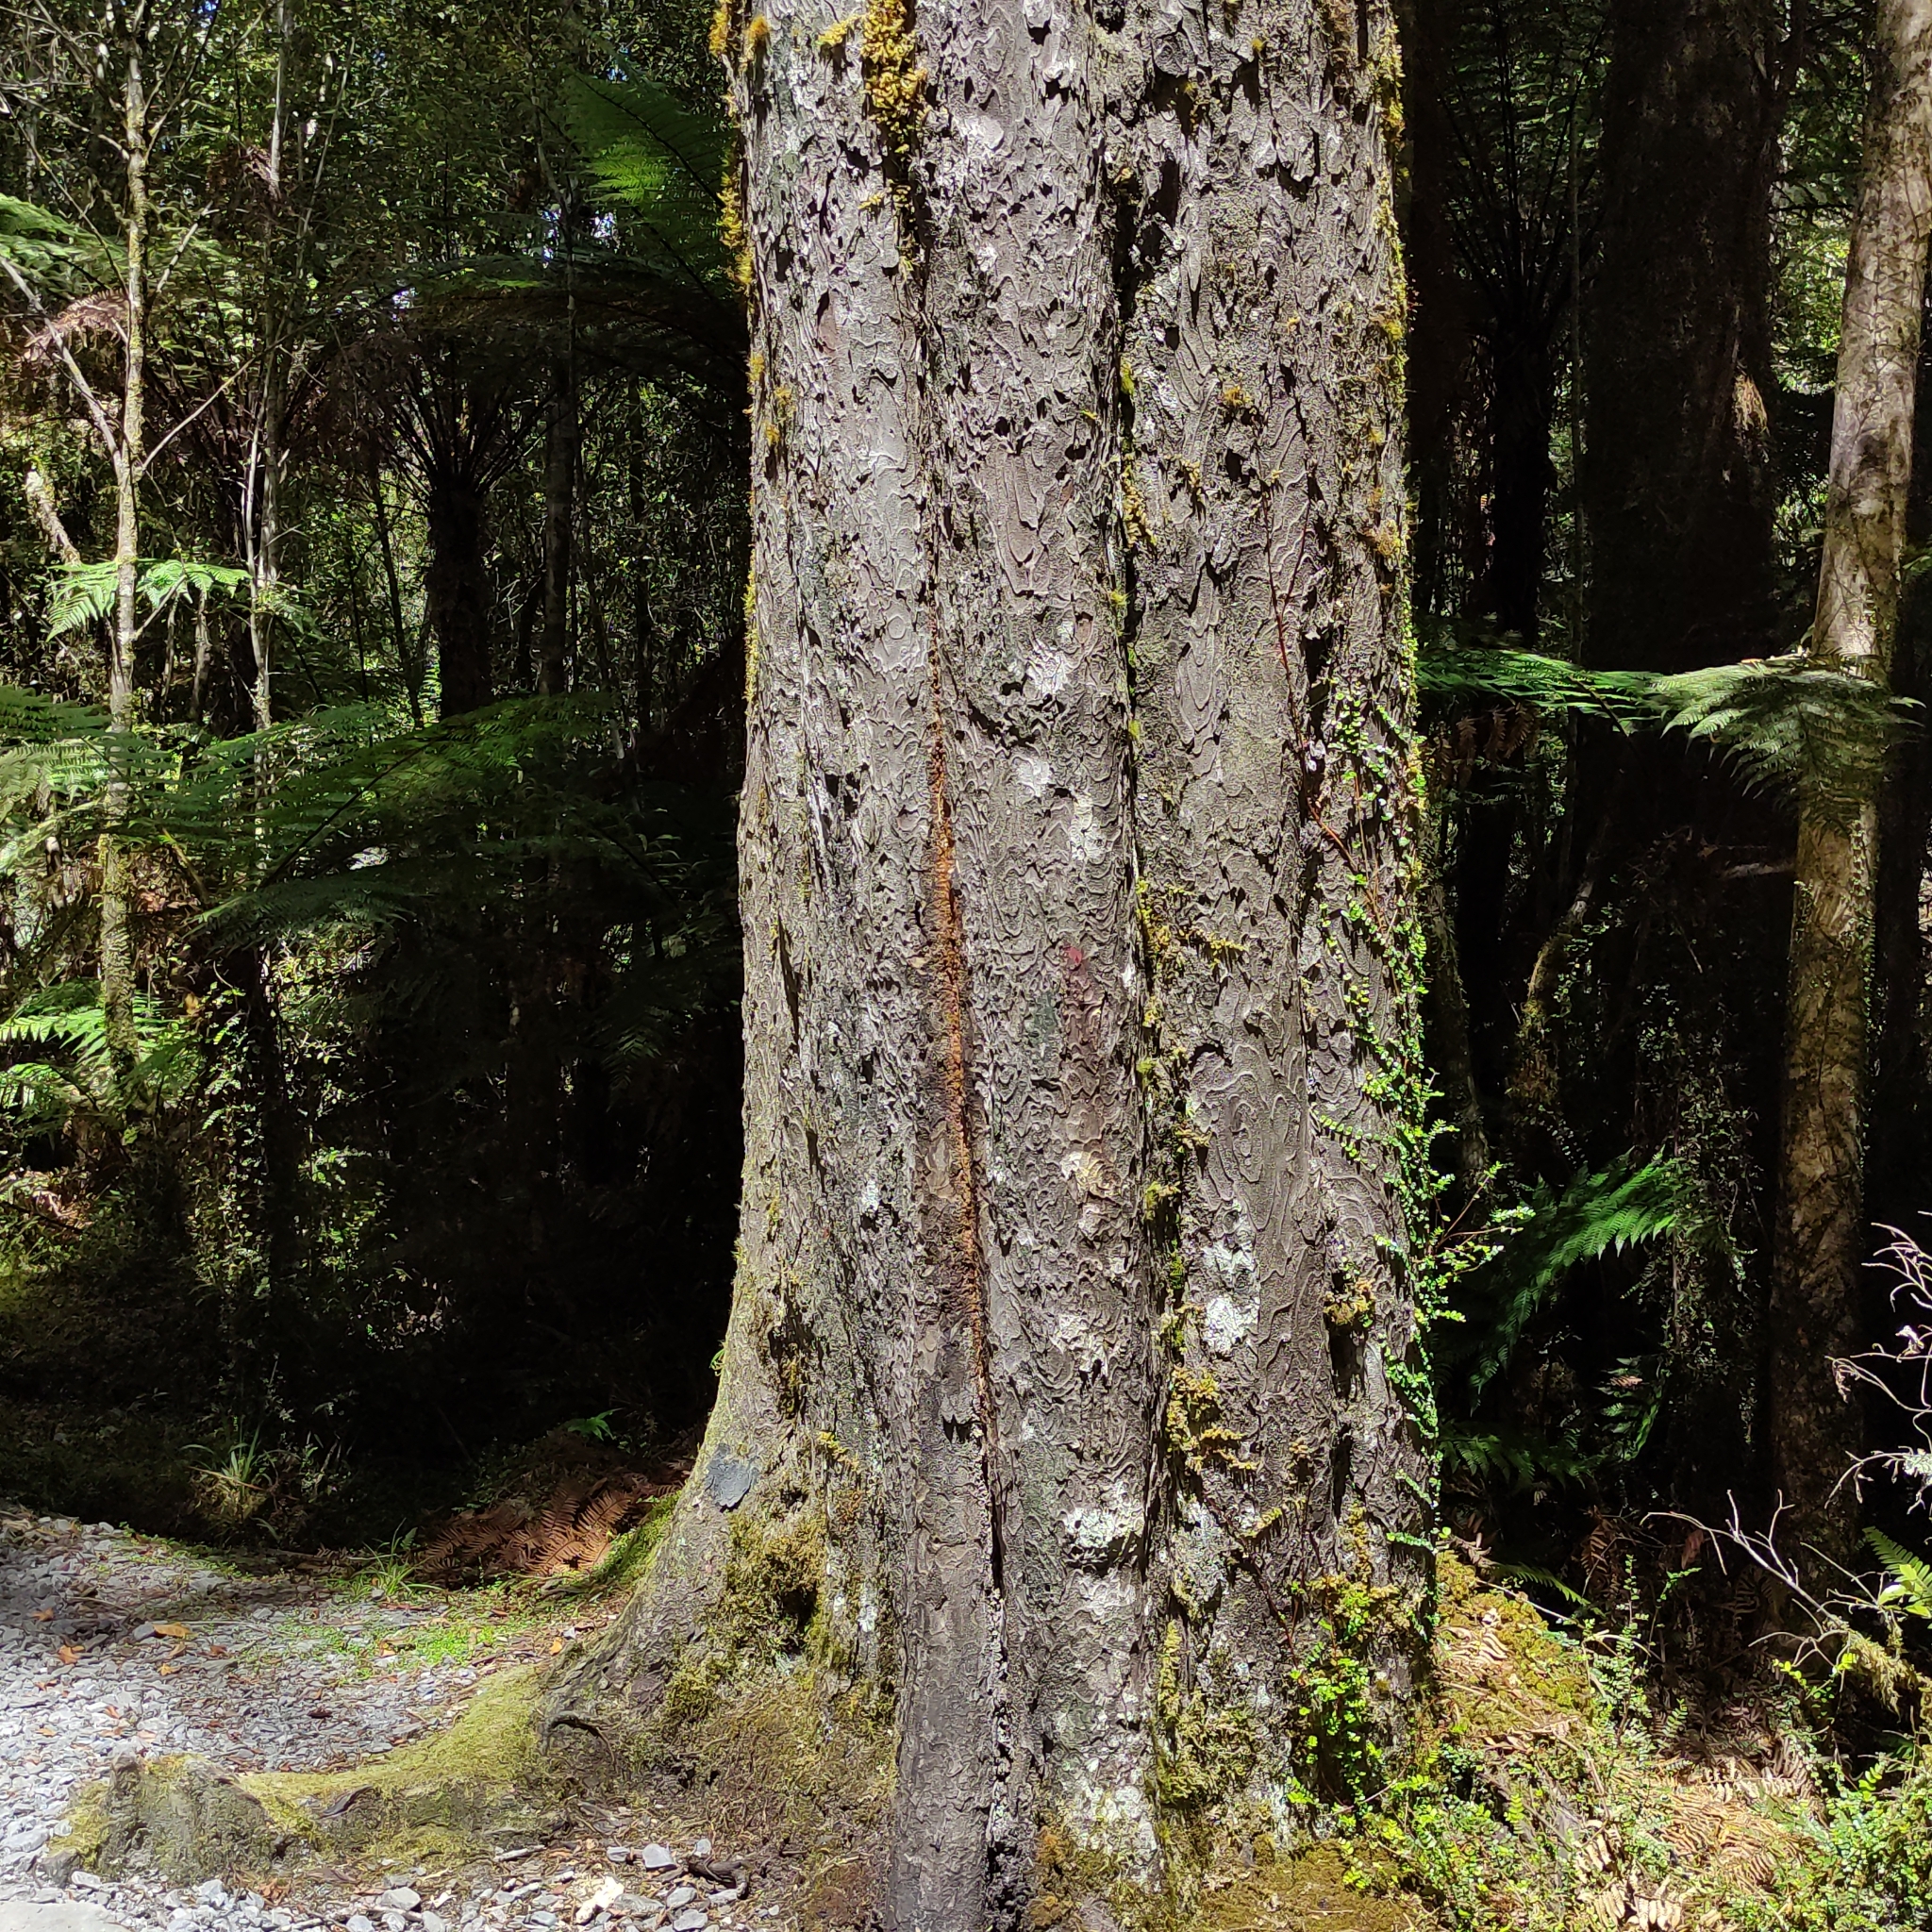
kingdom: Plantae
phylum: Tracheophyta
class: Pinopsida
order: Pinales
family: Podocarpaceae
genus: Dacrydium
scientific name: Dacrydium cupressinum
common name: Red pine
